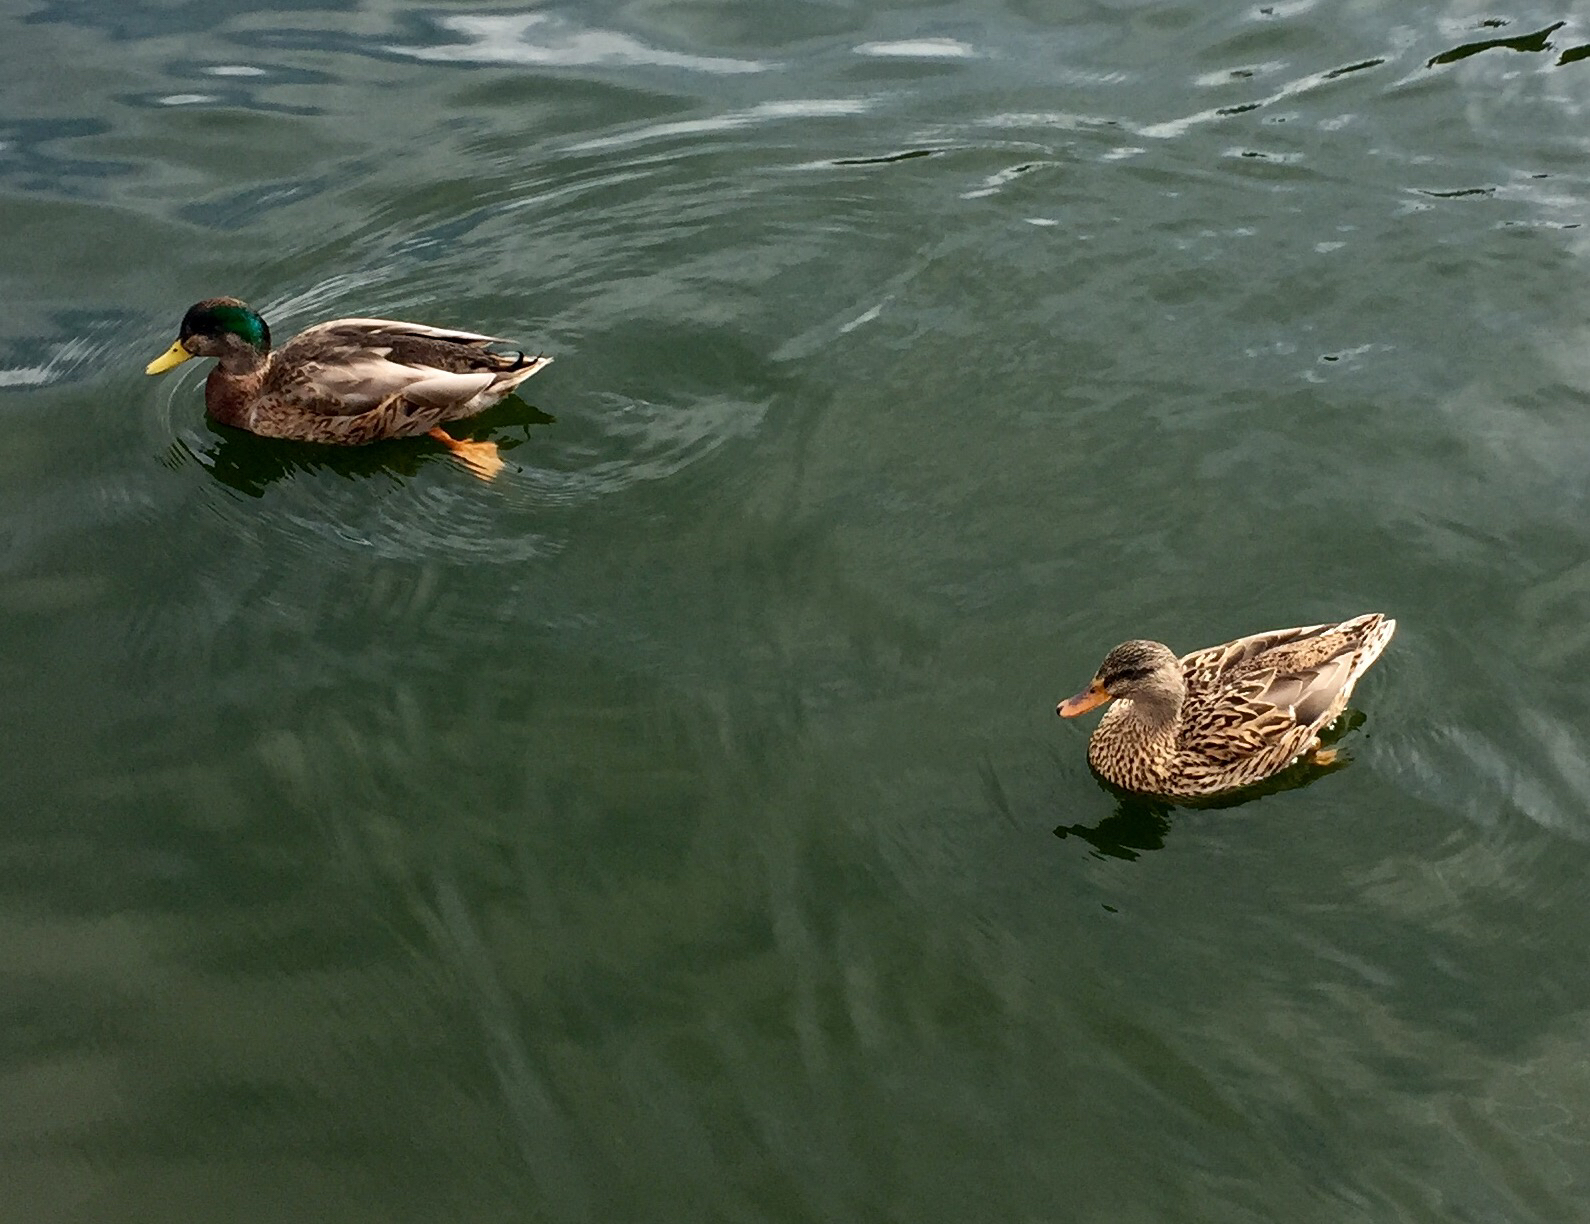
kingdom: Animalia
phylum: Chordata
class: Aves
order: Anseriformes
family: Anatidae
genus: Anas
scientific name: Anas
